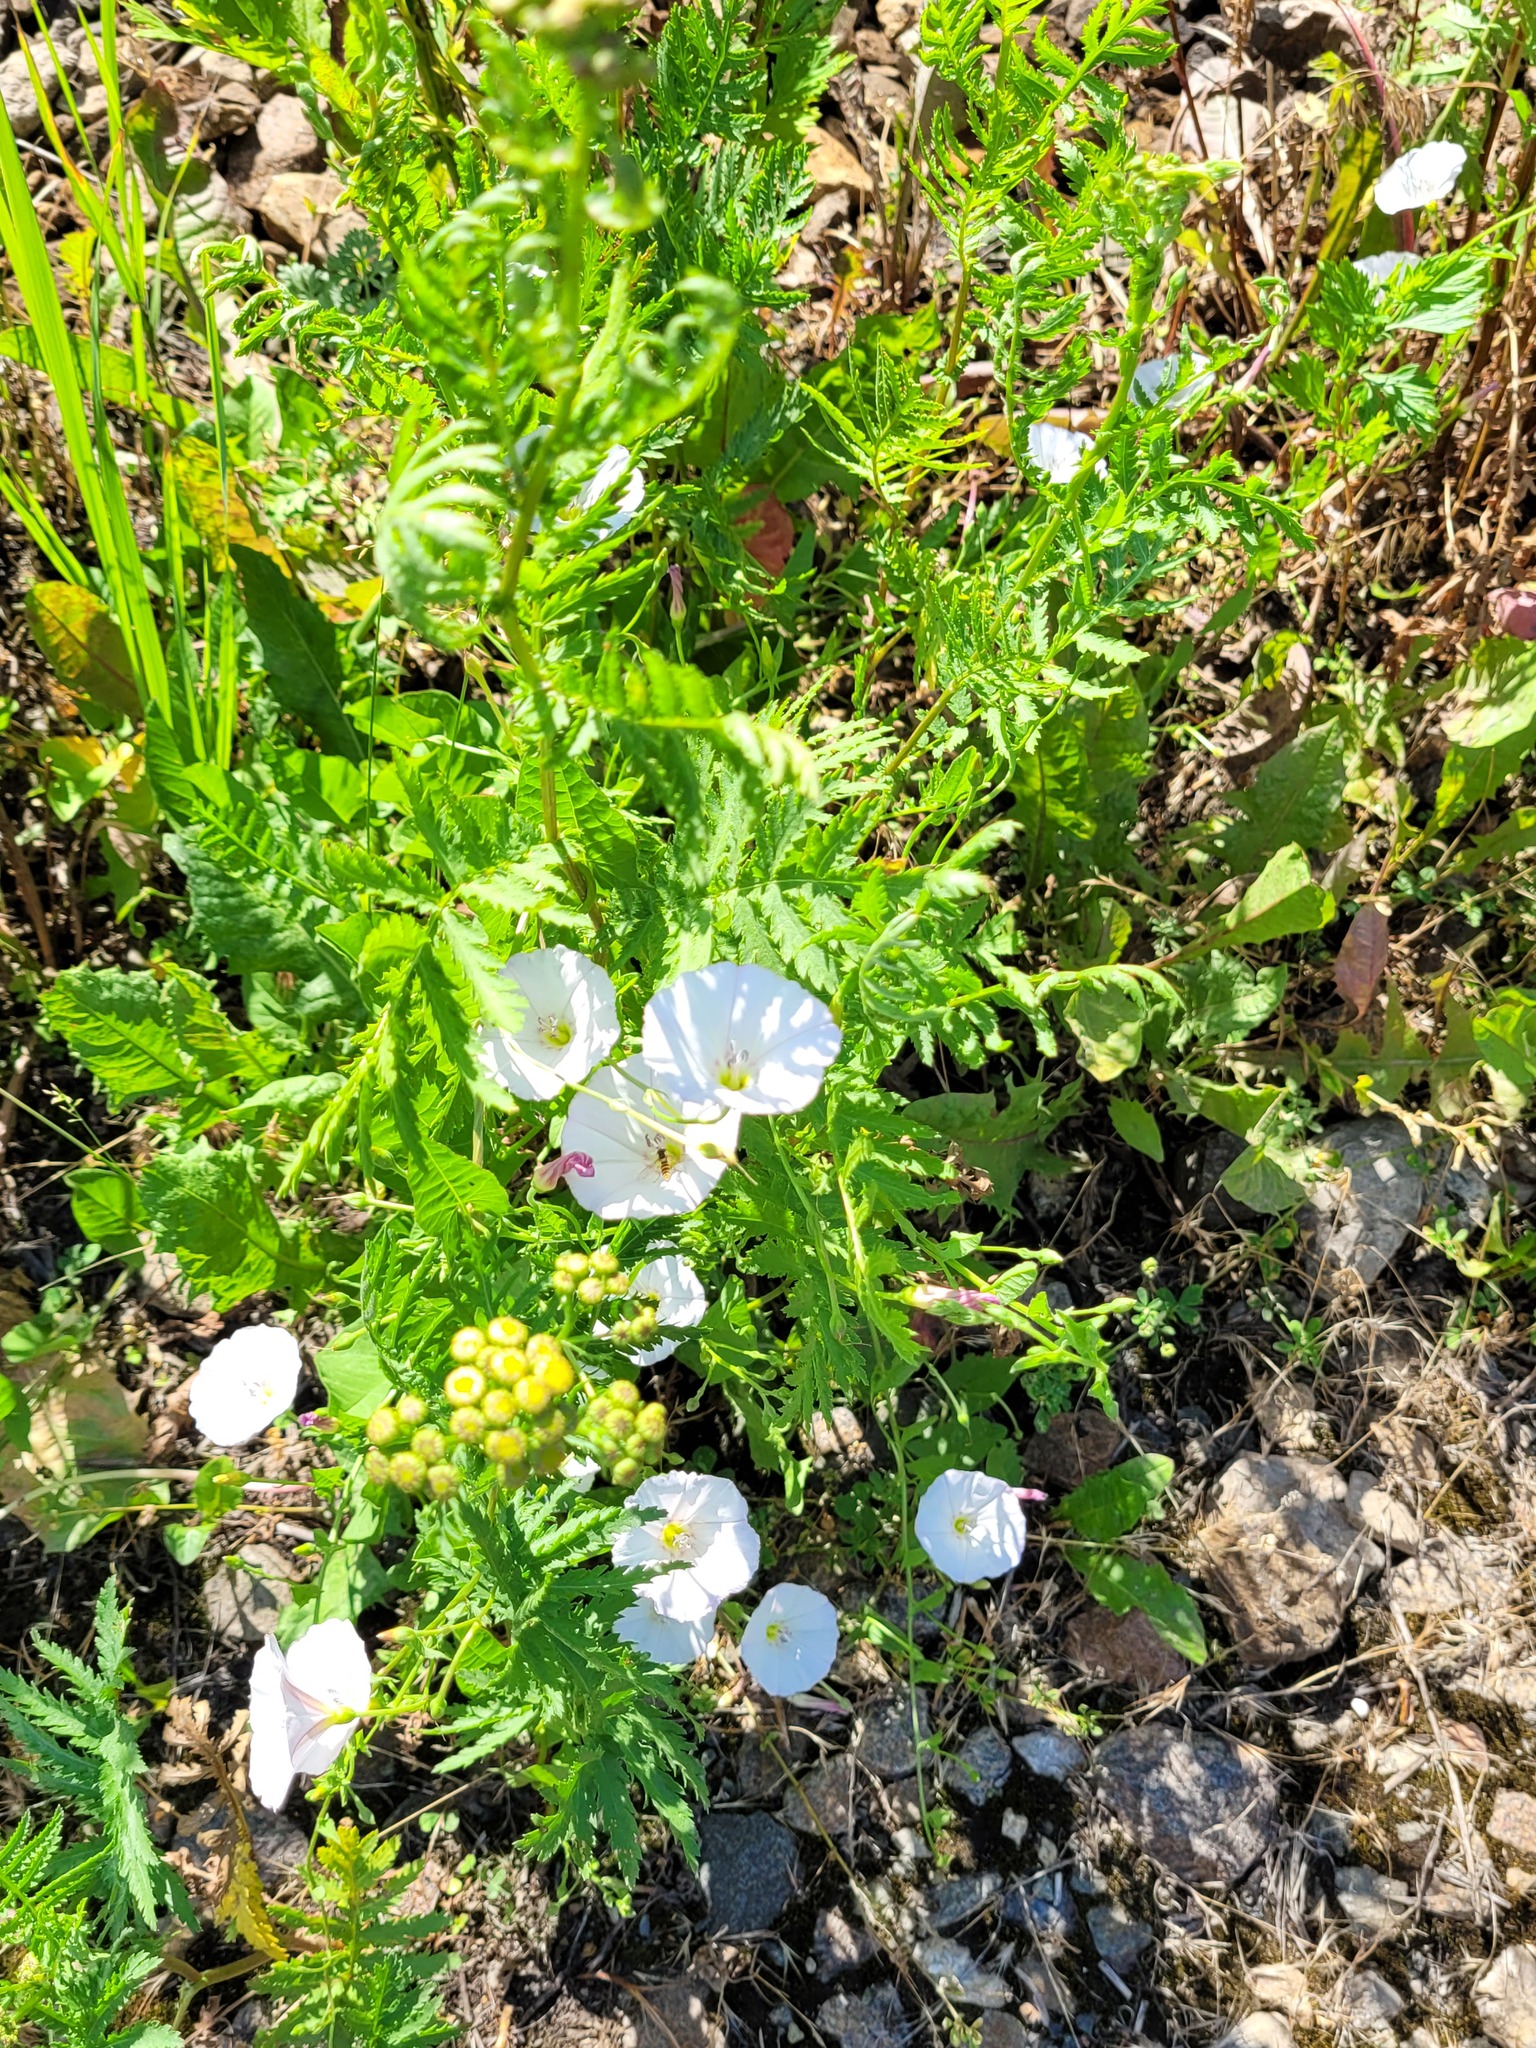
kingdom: Plantae
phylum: Tracheophyta
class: Magnoliopsida
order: Solanales
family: Convolvulaceae
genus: Convolvulus
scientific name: Convolvulus arvensis
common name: Field bindweed
